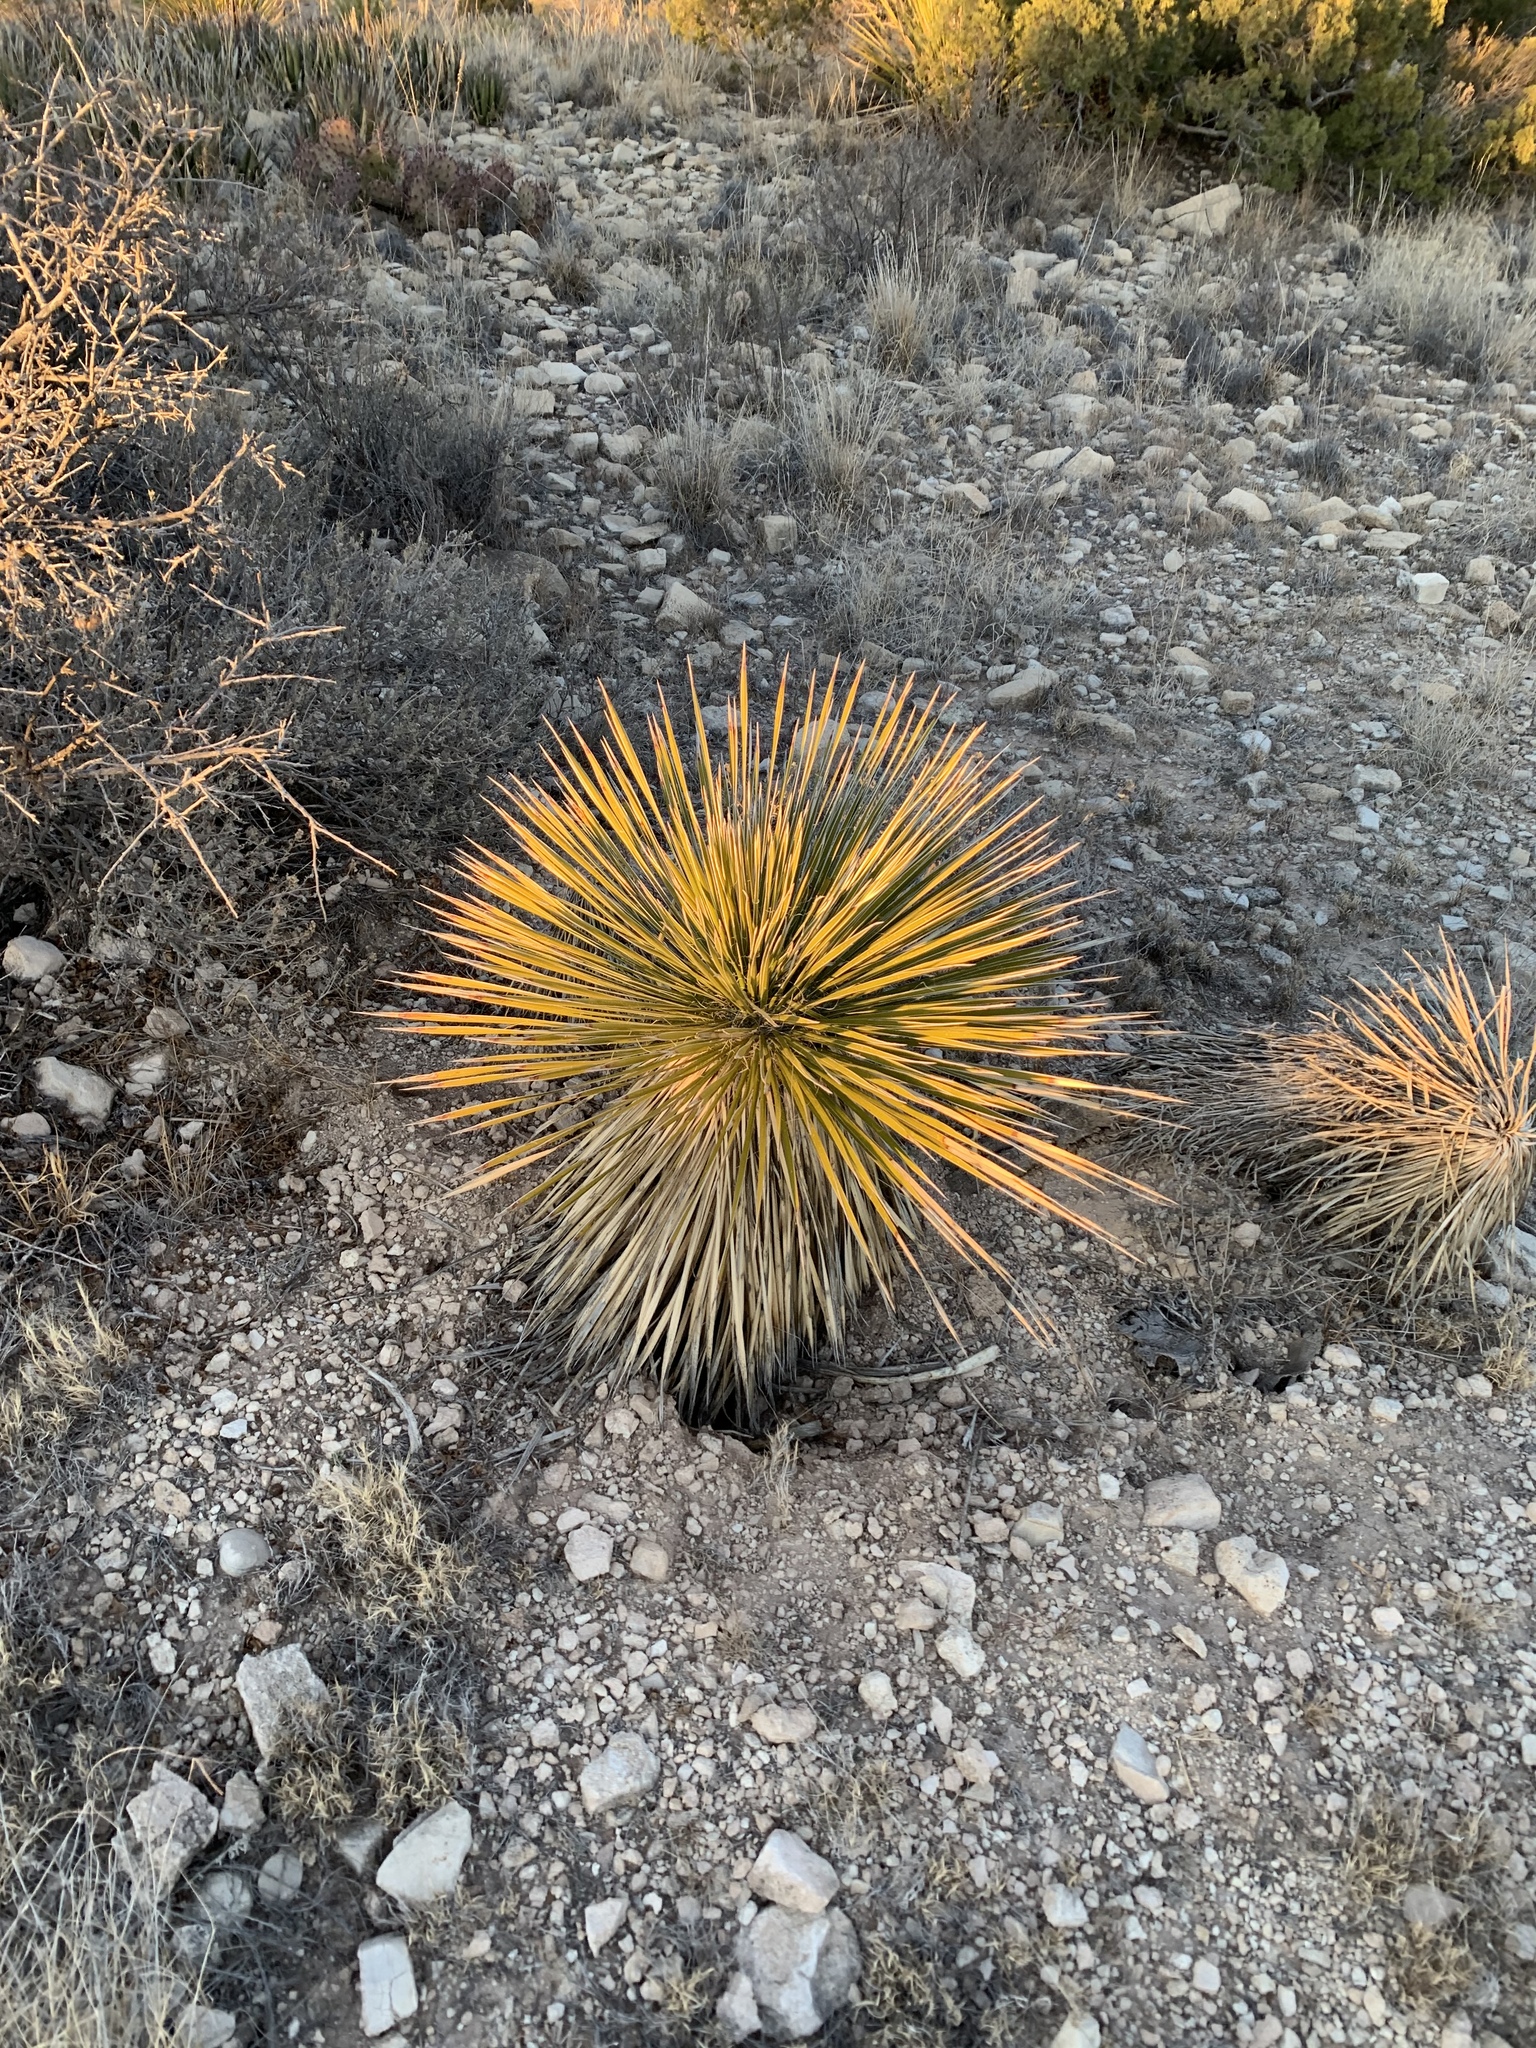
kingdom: Plantae
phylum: Tracheophyta
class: Liliopsida
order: Asparagales
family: Asparagaceae
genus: Yucca
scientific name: Yucca elata
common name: Palmella
